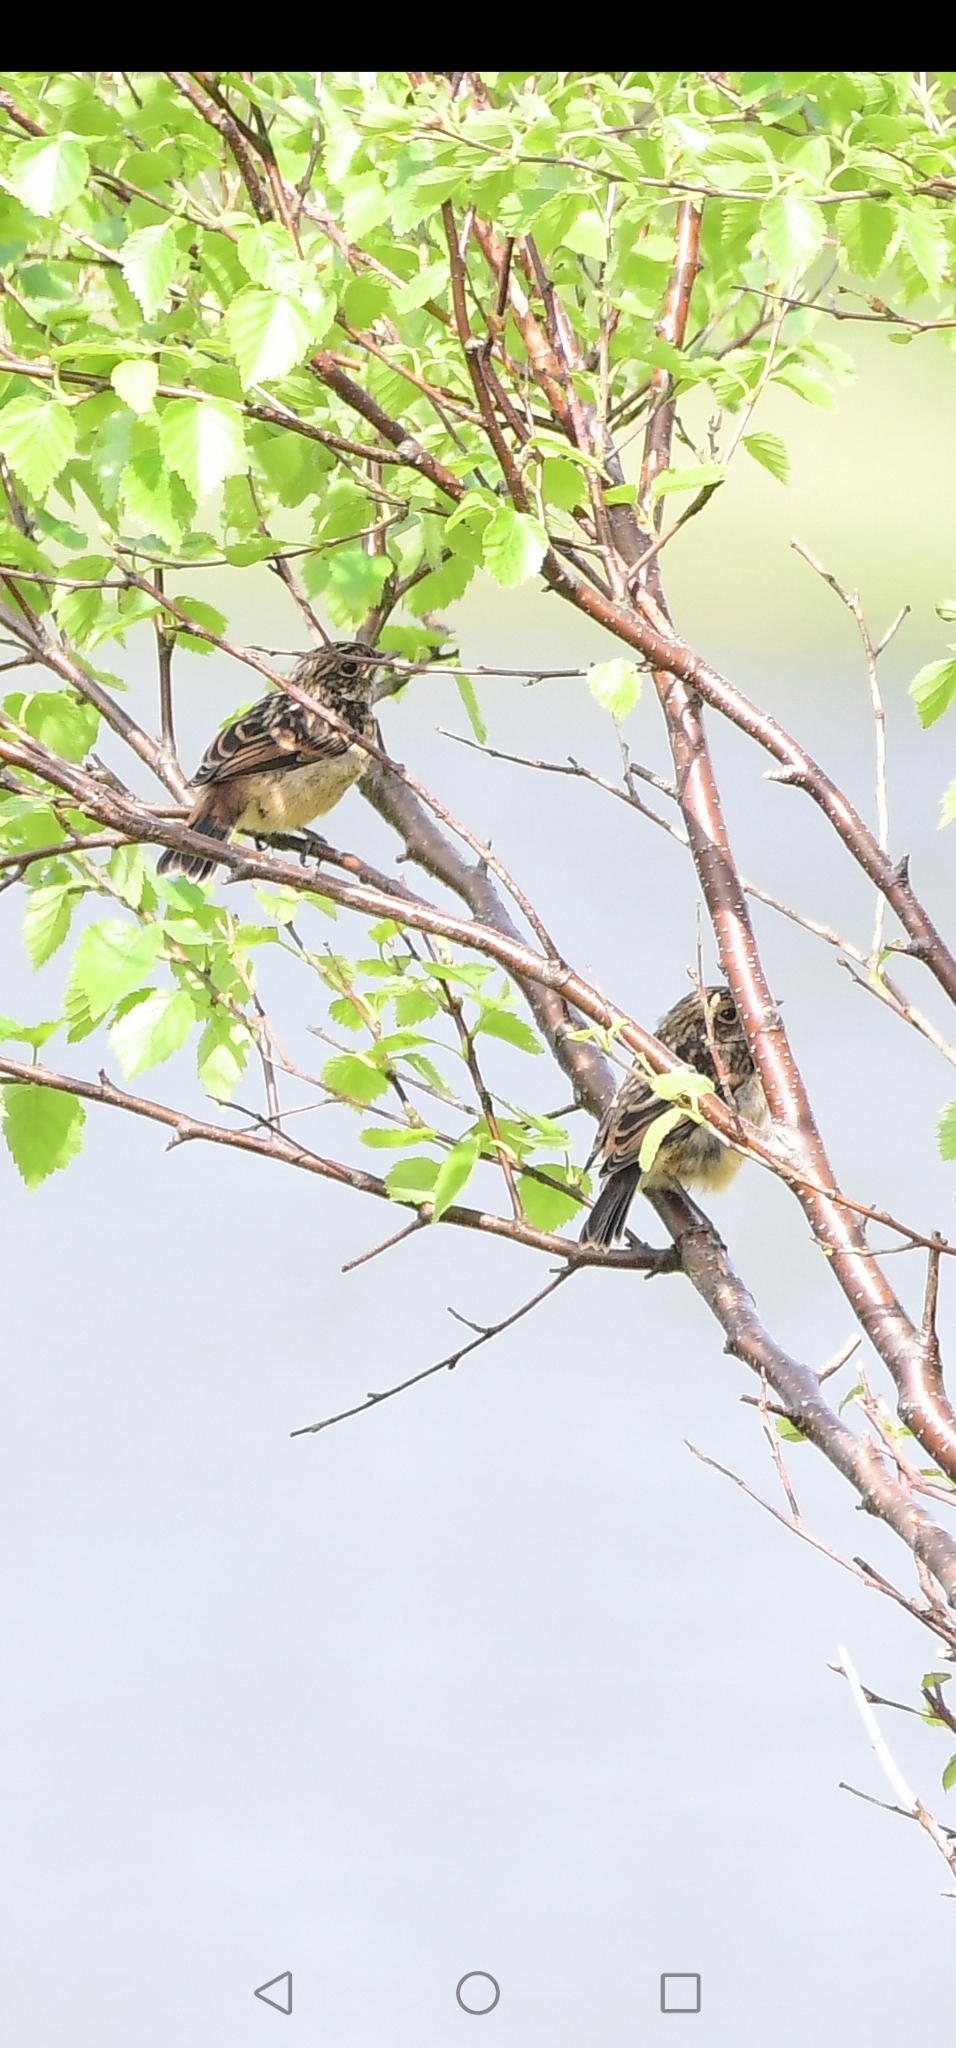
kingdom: Animalia
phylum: Chordata
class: Aves
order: Passeriformes
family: Muscicapidae
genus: Saxicola
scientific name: Saxicola rubicola
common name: European stonechat
